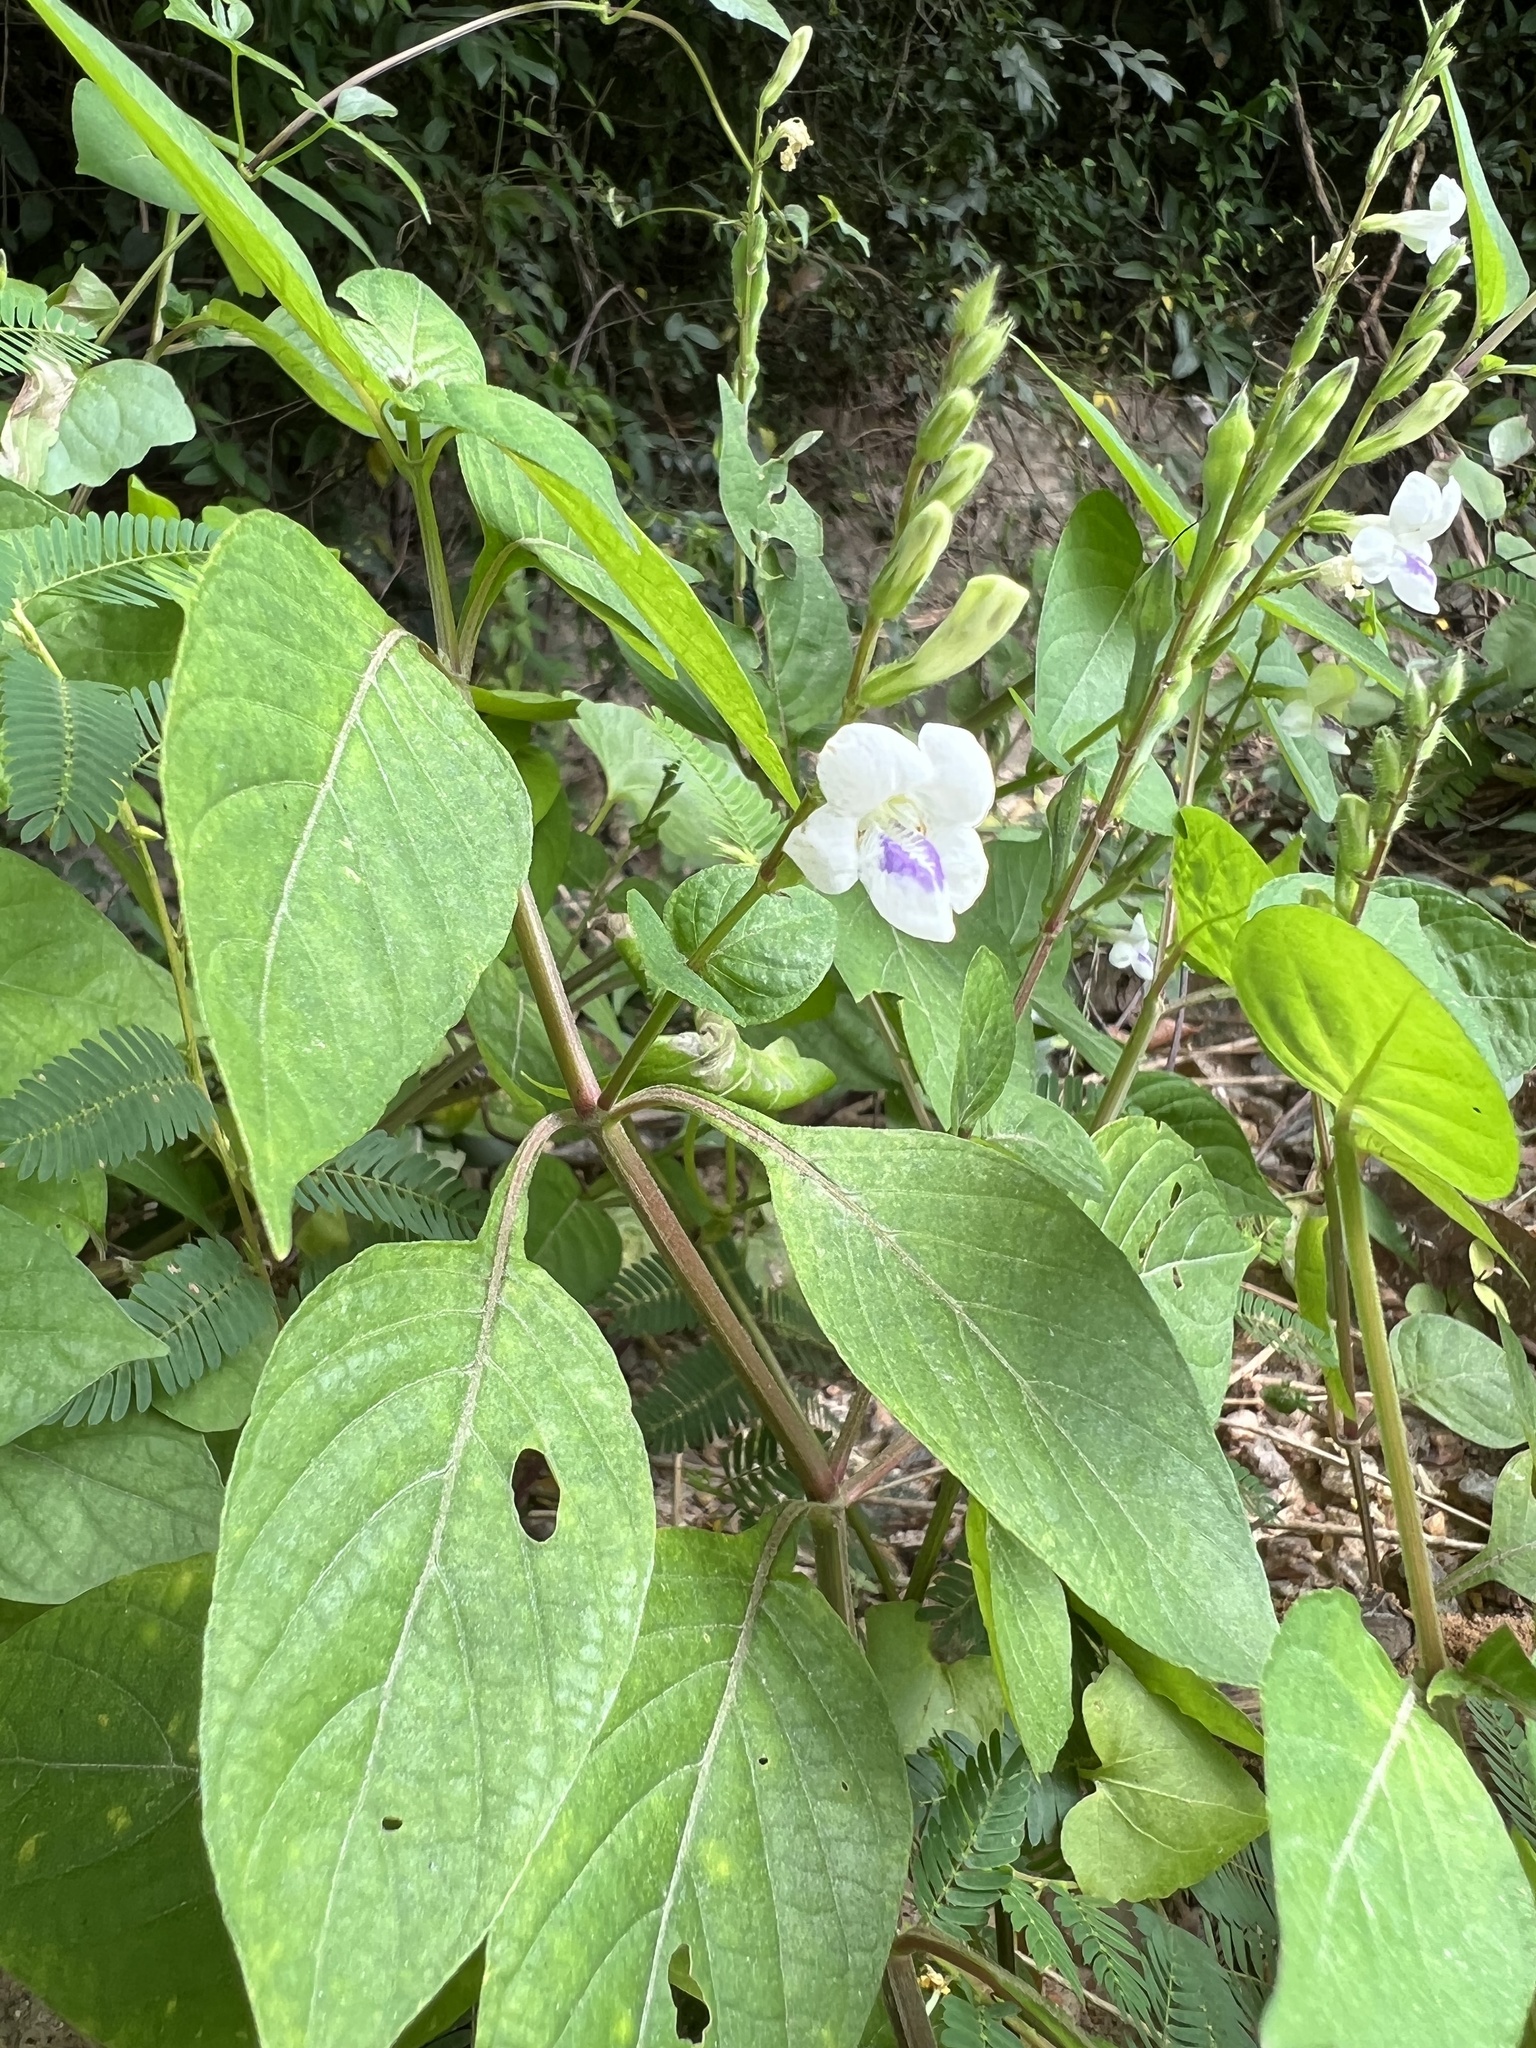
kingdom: Plantae
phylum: Tracheophyta
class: Magnoliopsida
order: Lamiales
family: Acanthaceae
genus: Asystasia
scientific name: Asystasia intrusa
